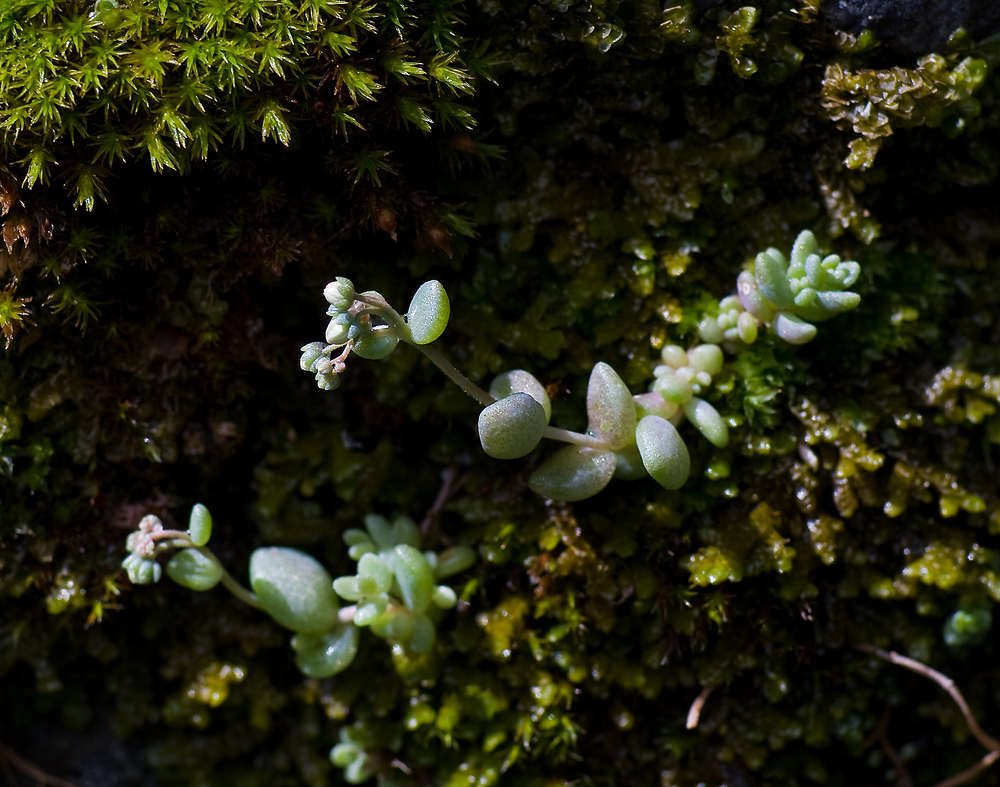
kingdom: Plantae
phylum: Tracheophyta
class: Magnoliopsida
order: Saxifragales
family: Crassulaceae
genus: Sedum
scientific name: Sedum dasyphyllum
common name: Thick-leaf stonecrop
